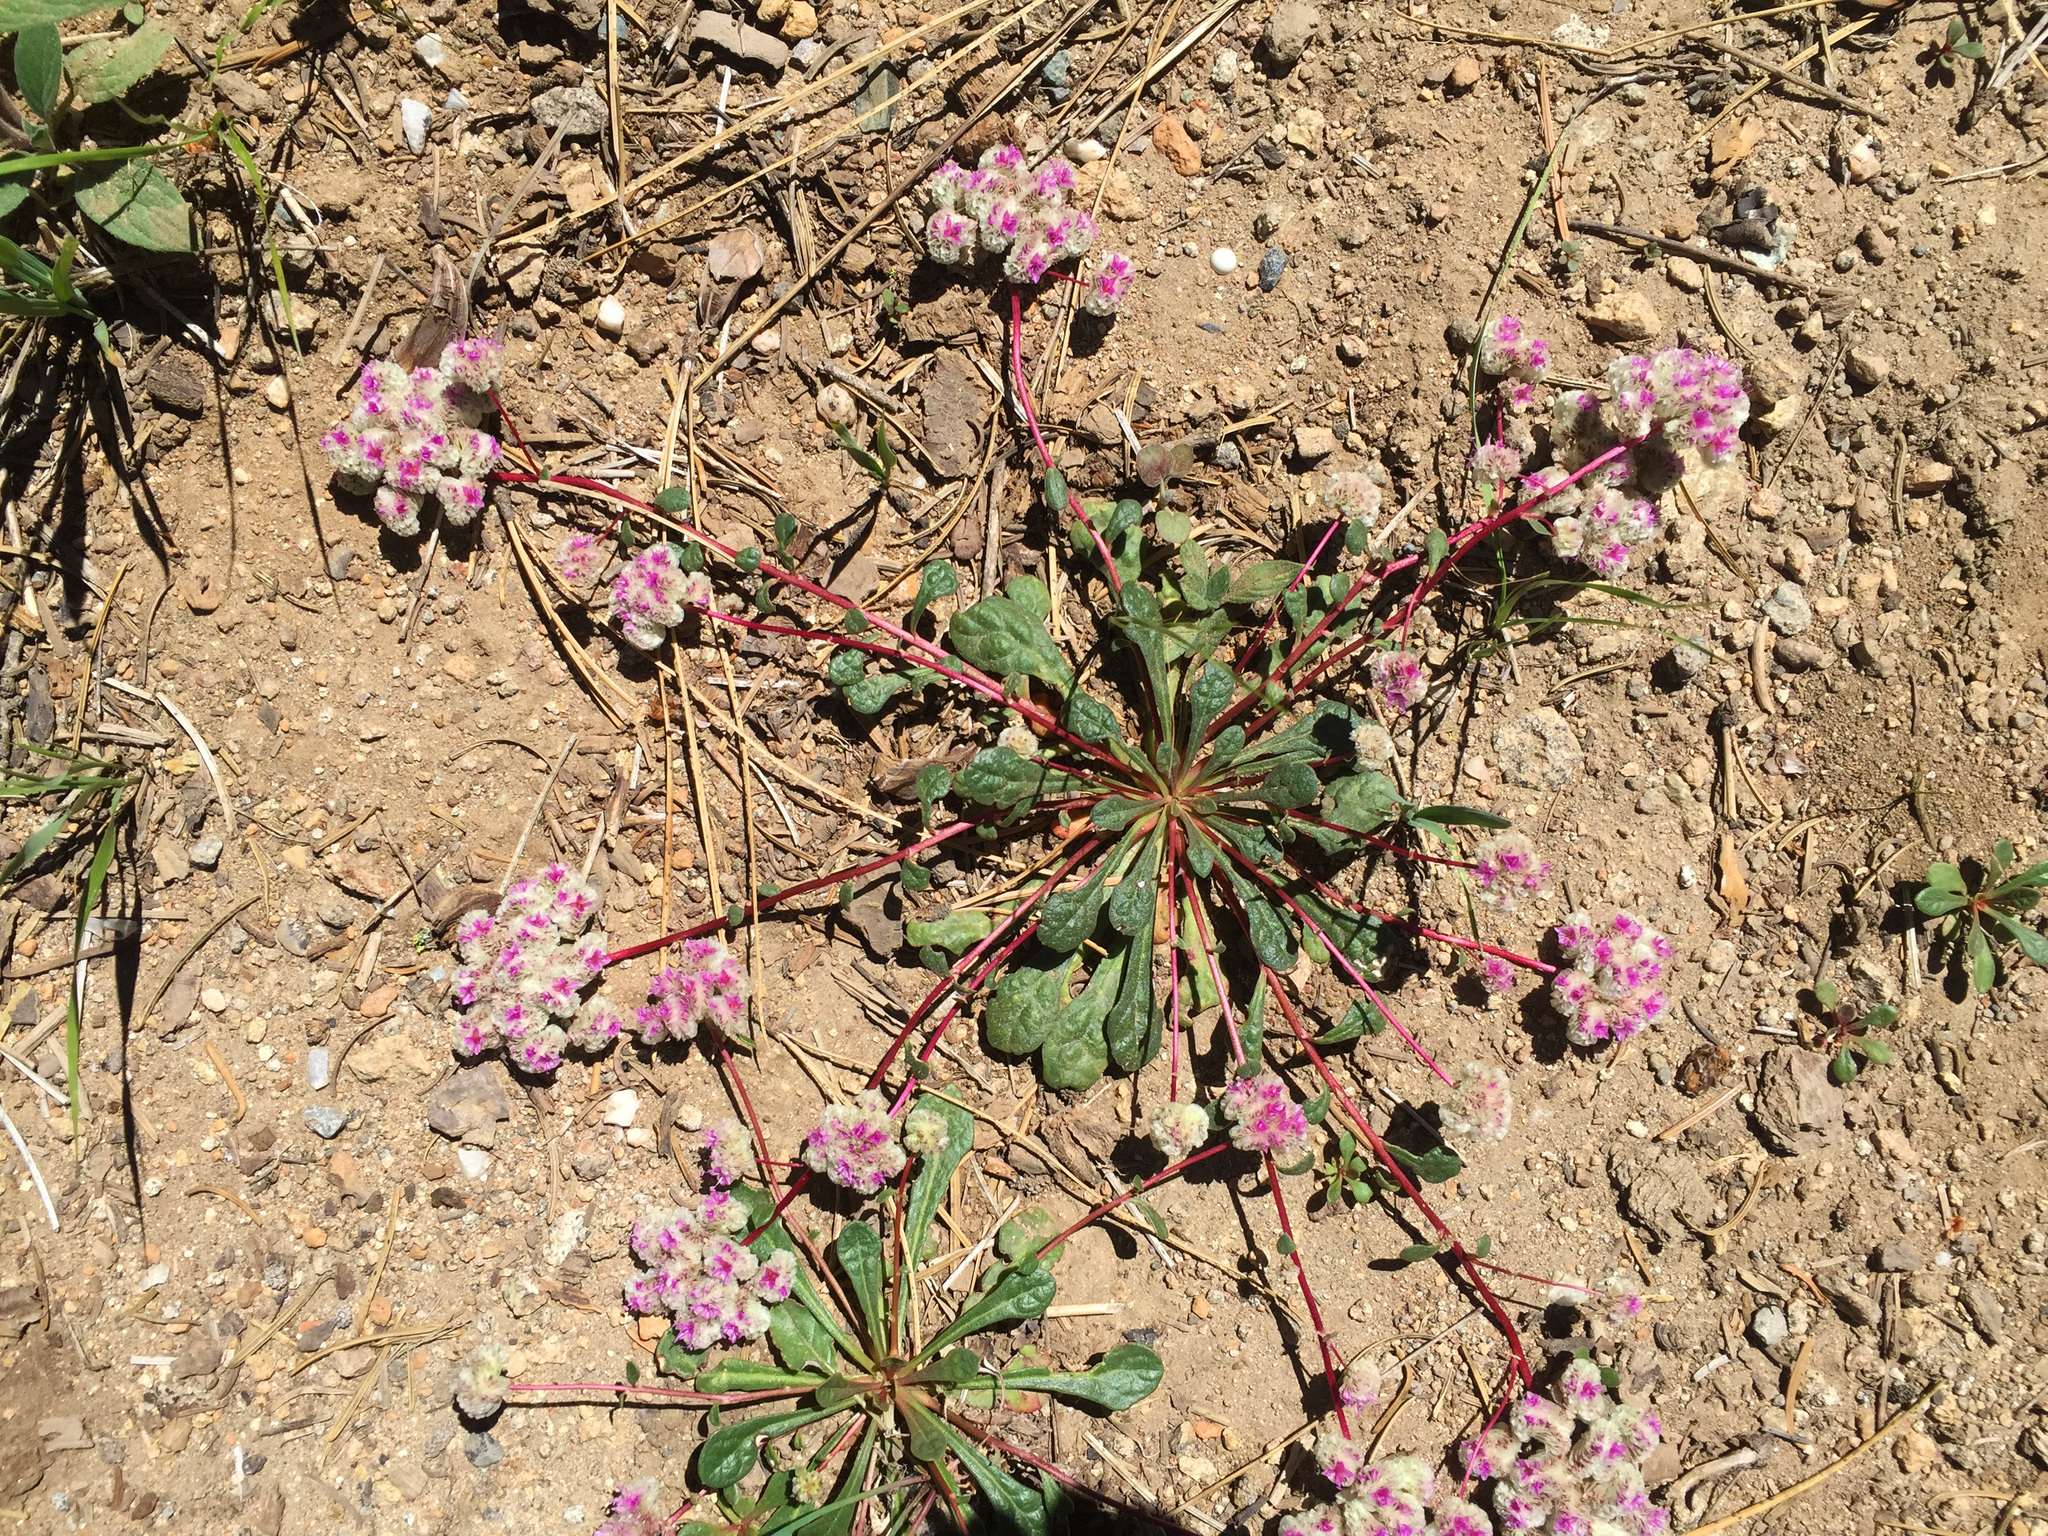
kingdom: Plantae
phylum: Tracheophyta
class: Magnoliopsida
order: Caryophyllales
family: Montiaceae
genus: Calyptridium
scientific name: Calyptridium monospermum
